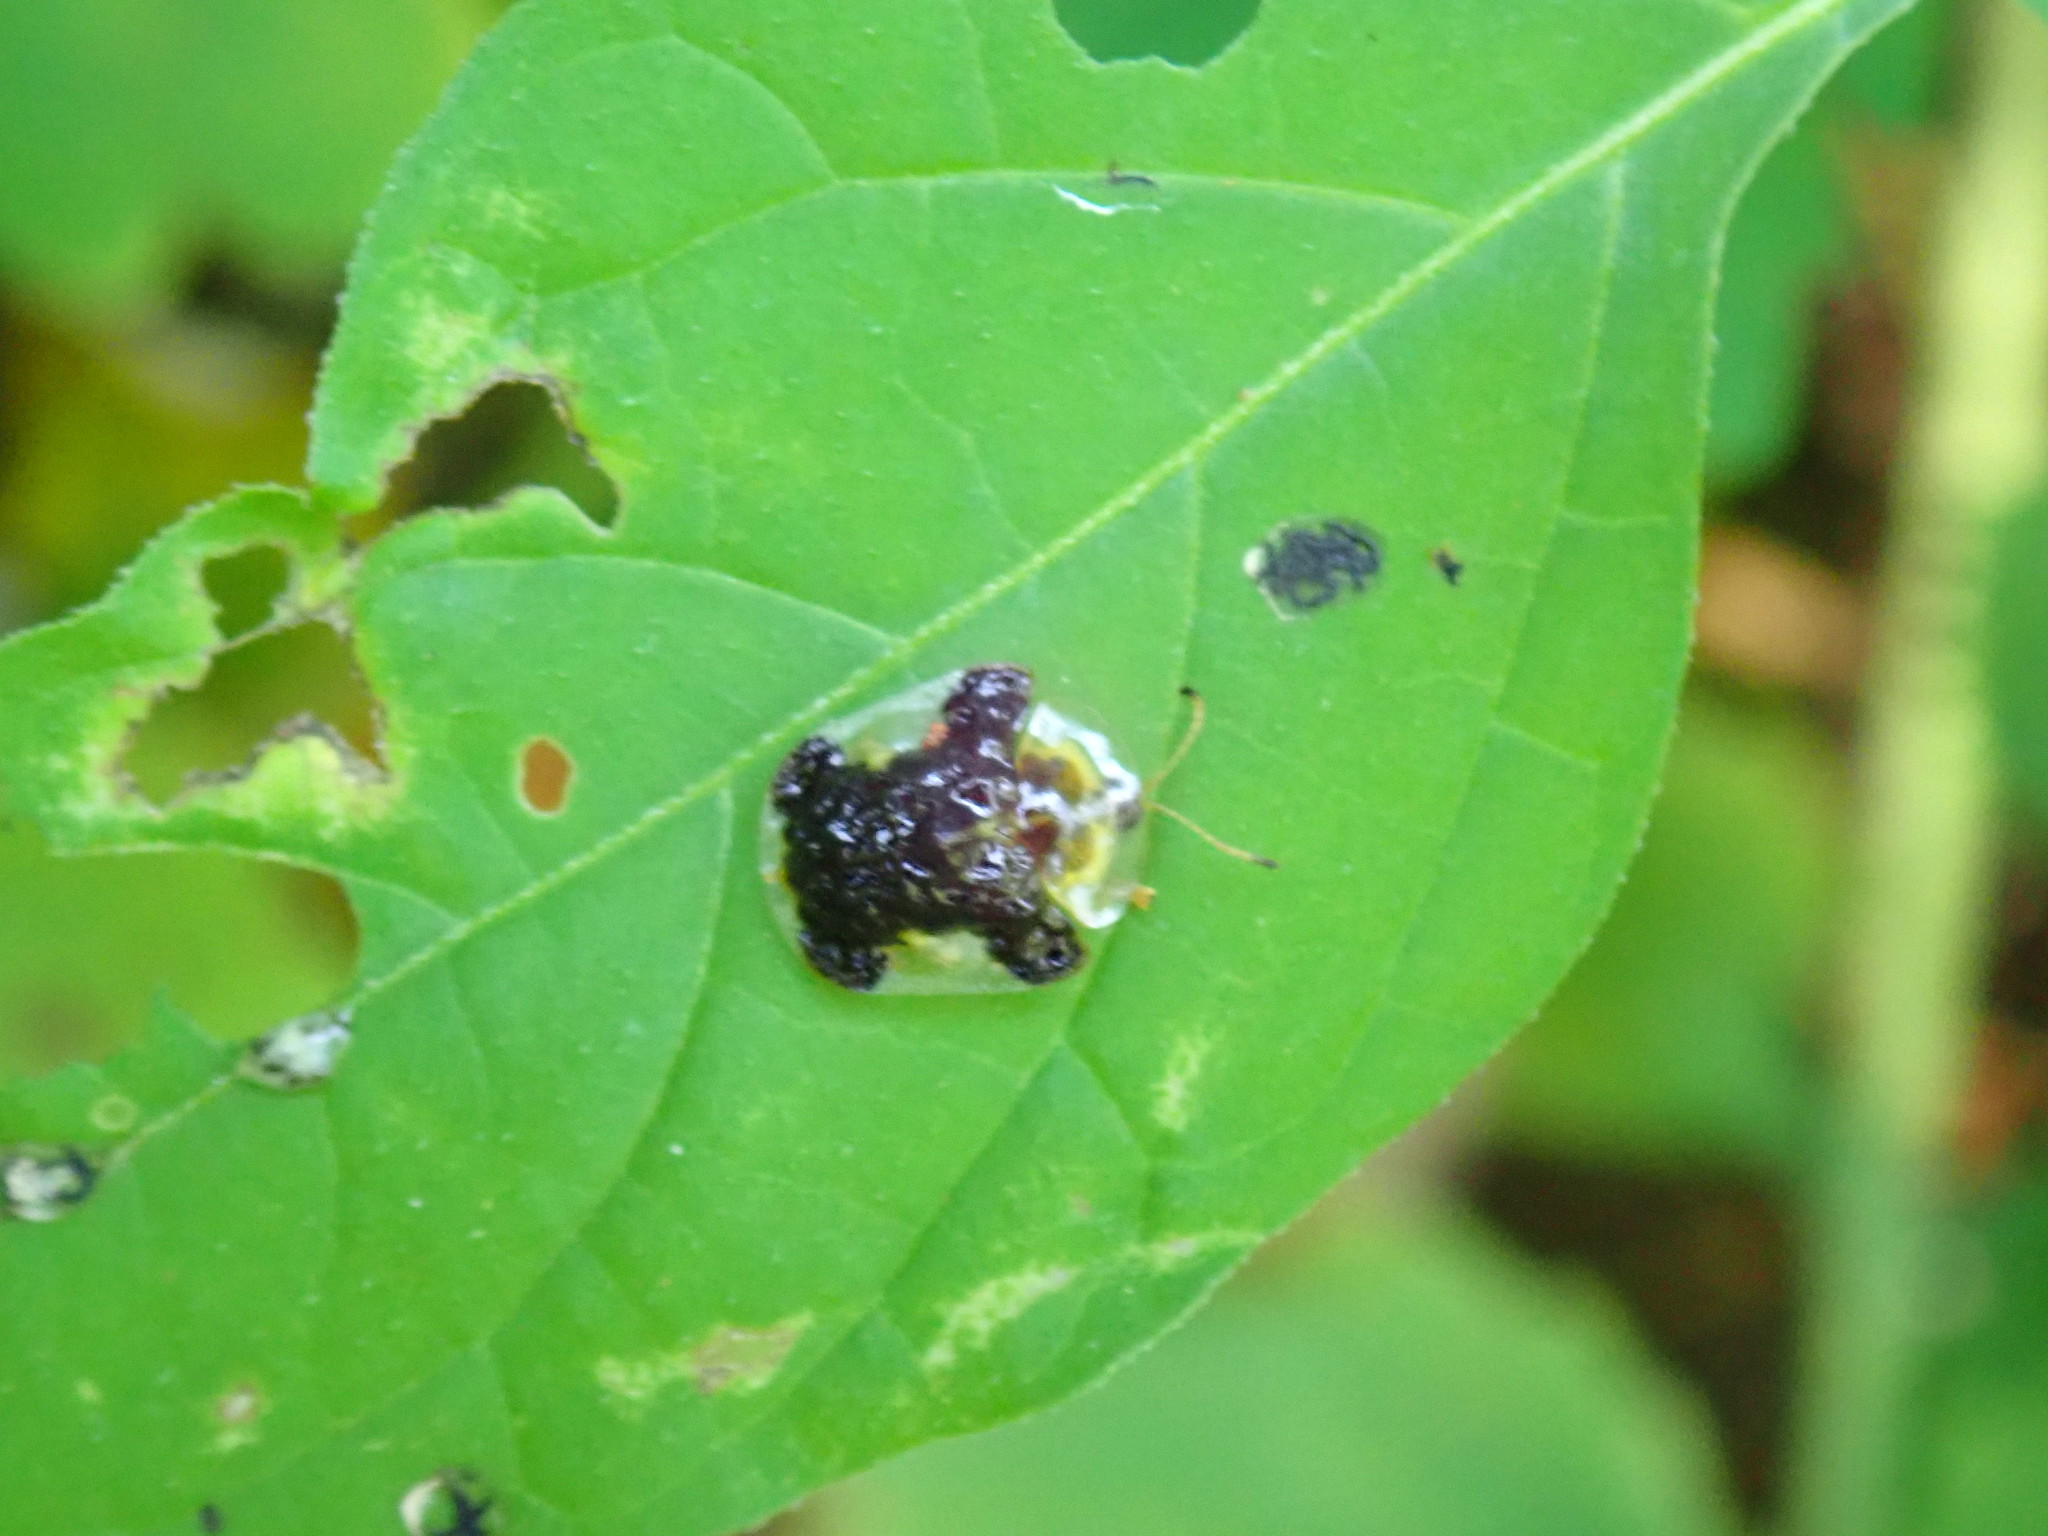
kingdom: Animalia
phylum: Arthropoda
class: Insecta
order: Coleoptera
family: Chrysomelidae
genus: Helocassis
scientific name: Helocassis clavata
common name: Clavate tortoise beetle
